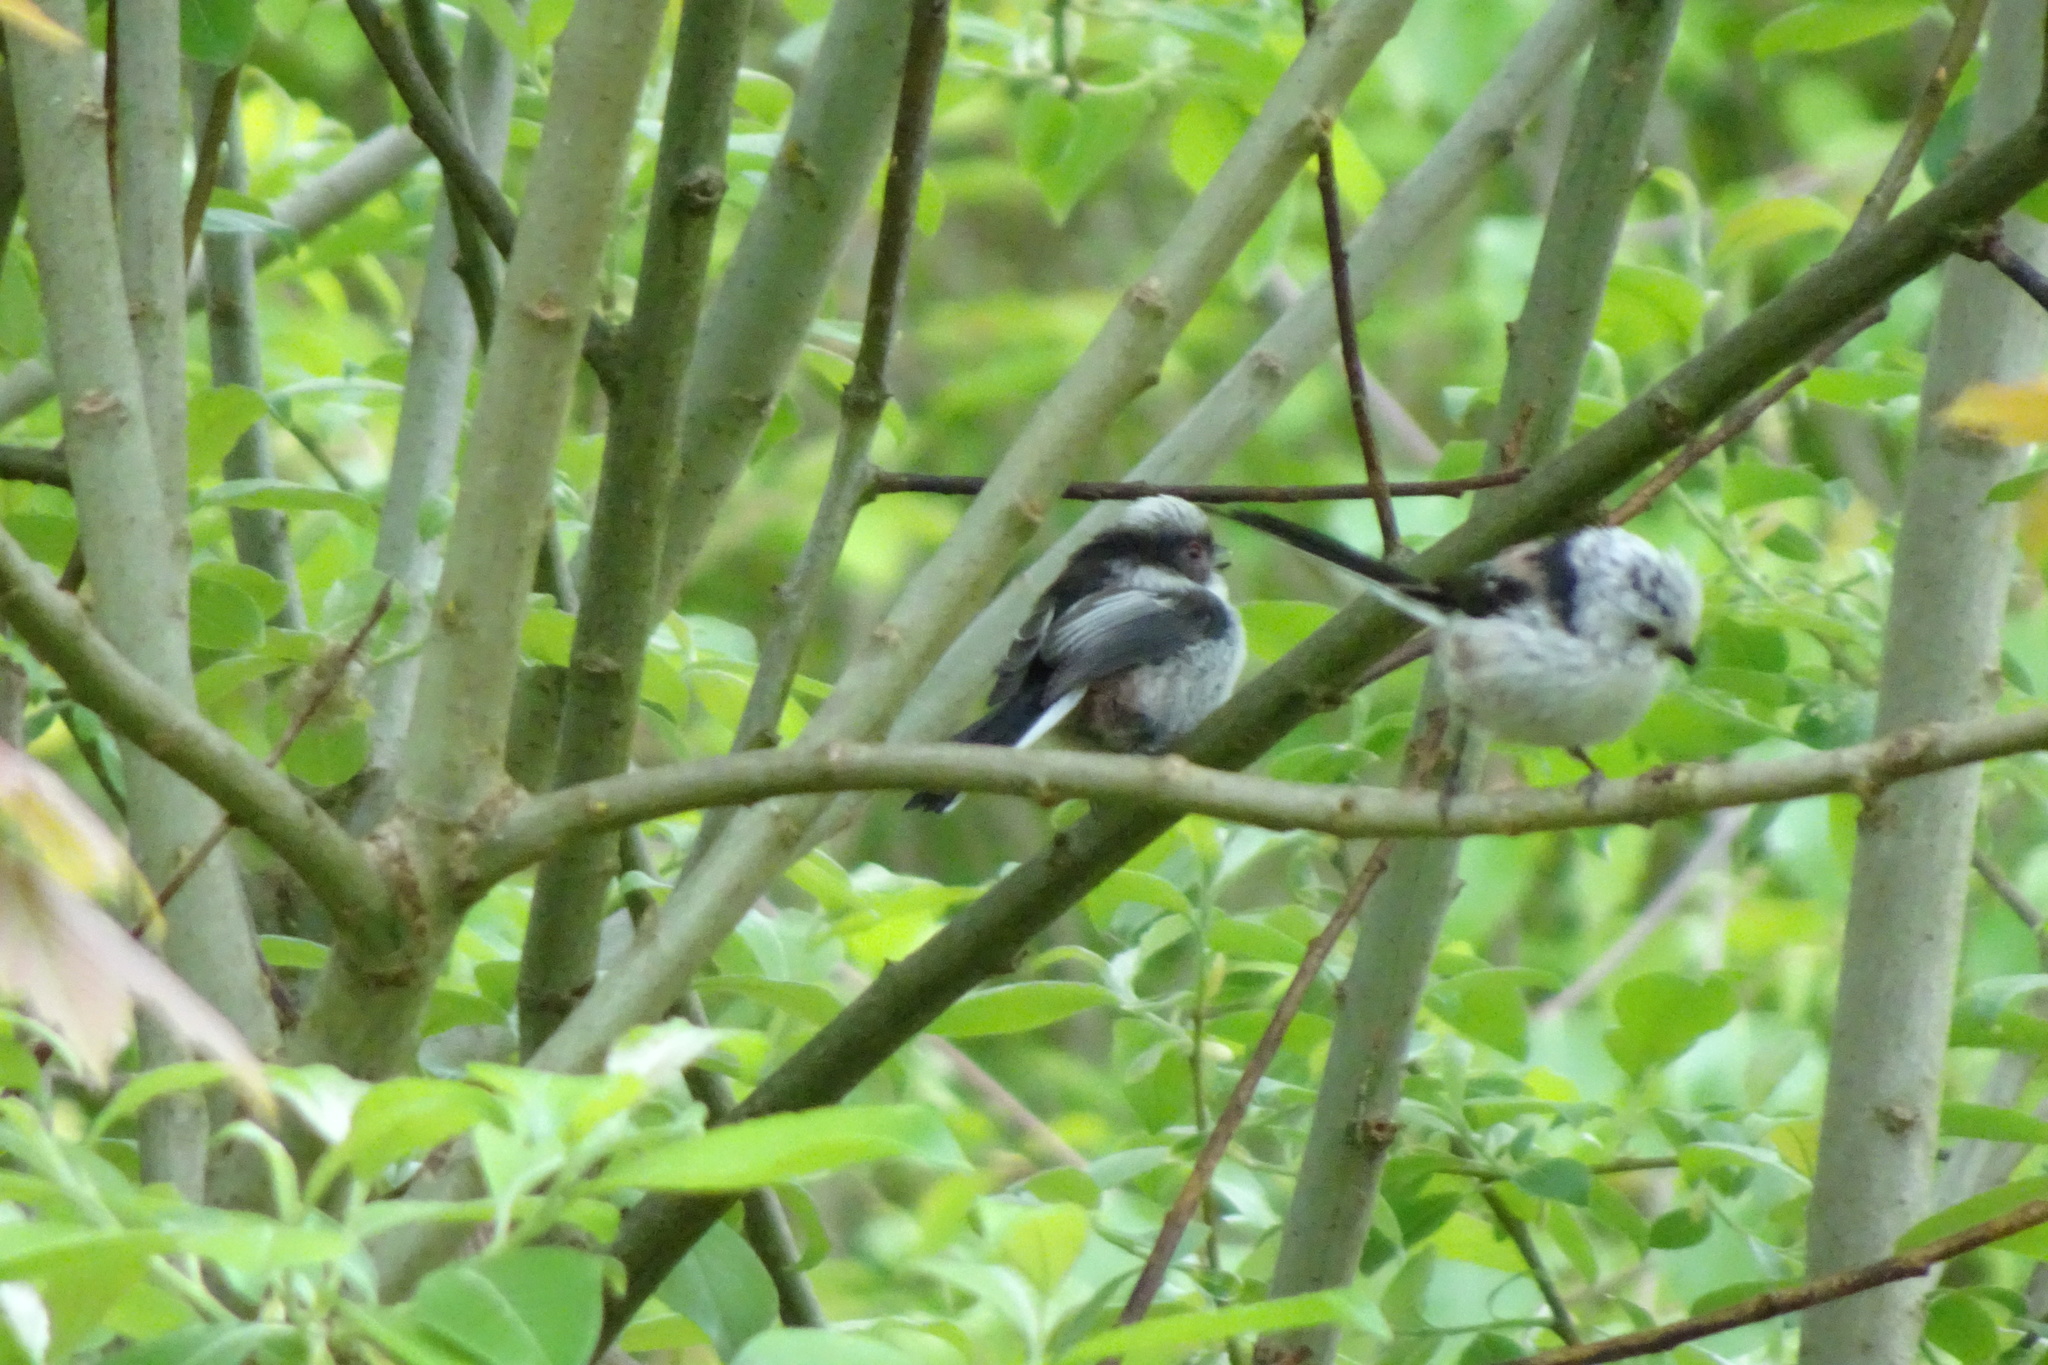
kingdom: Animalia
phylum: Chordata
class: Aves
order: Passeriformes
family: Aegithalidae
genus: Aegithalos
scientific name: Aegithalos caudatus
